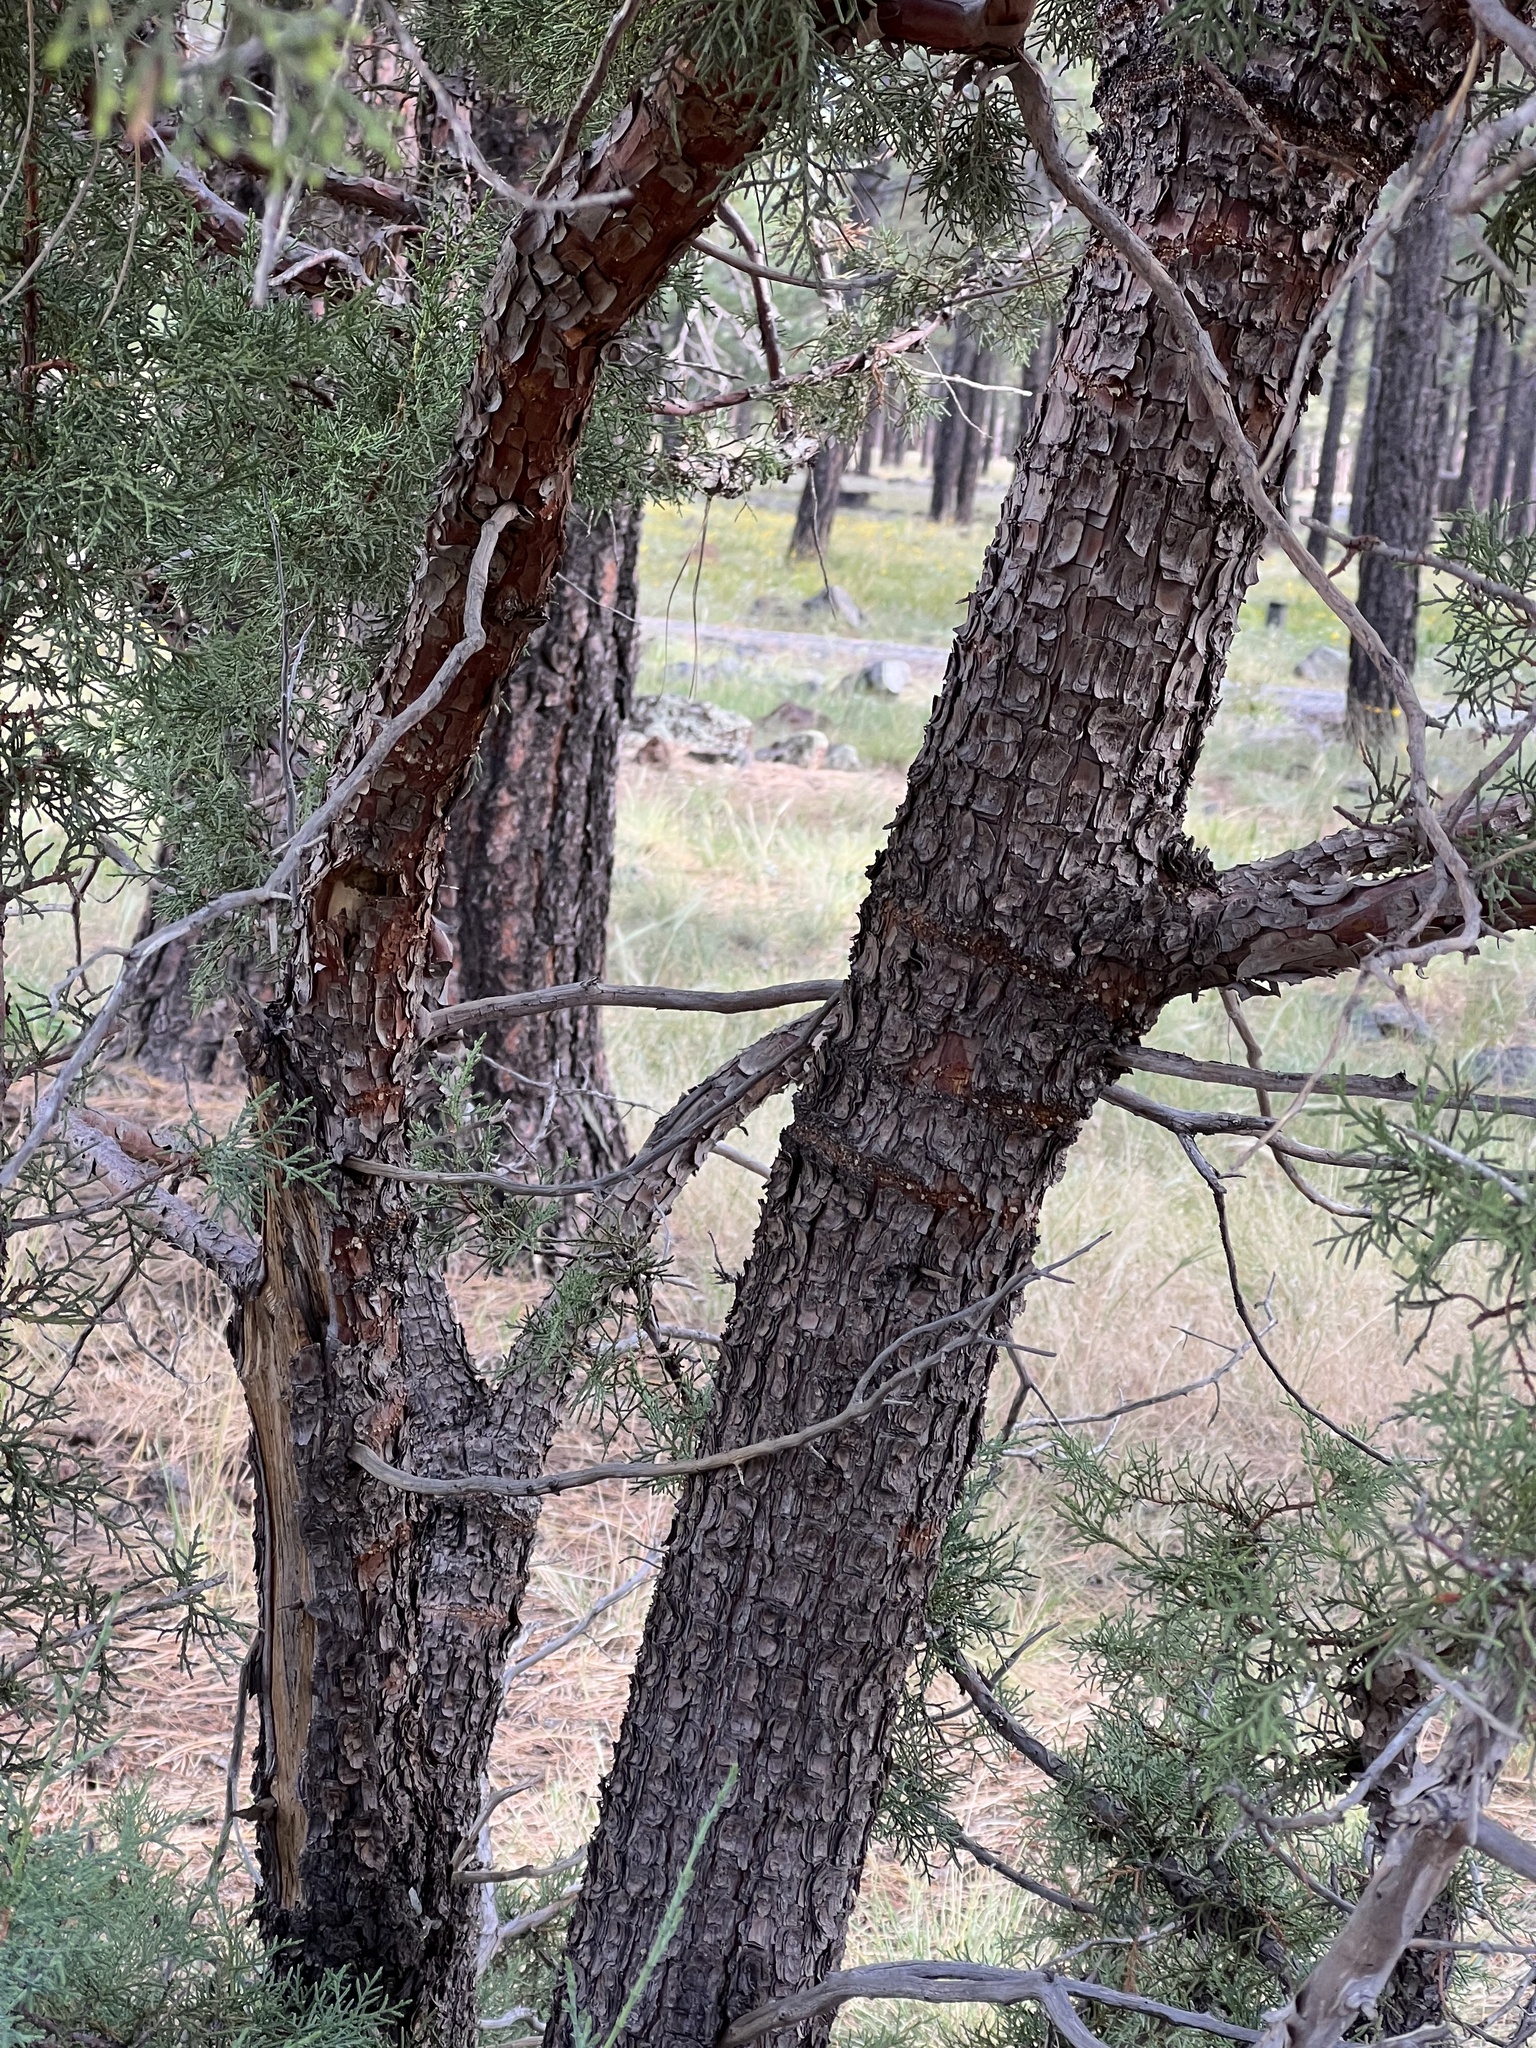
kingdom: Plantae
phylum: Tracheophyta
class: Pinopsida
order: Pinales
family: Cupressaceae
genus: Juniperus
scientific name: Juniperus deppeana
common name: Alligator juniper
